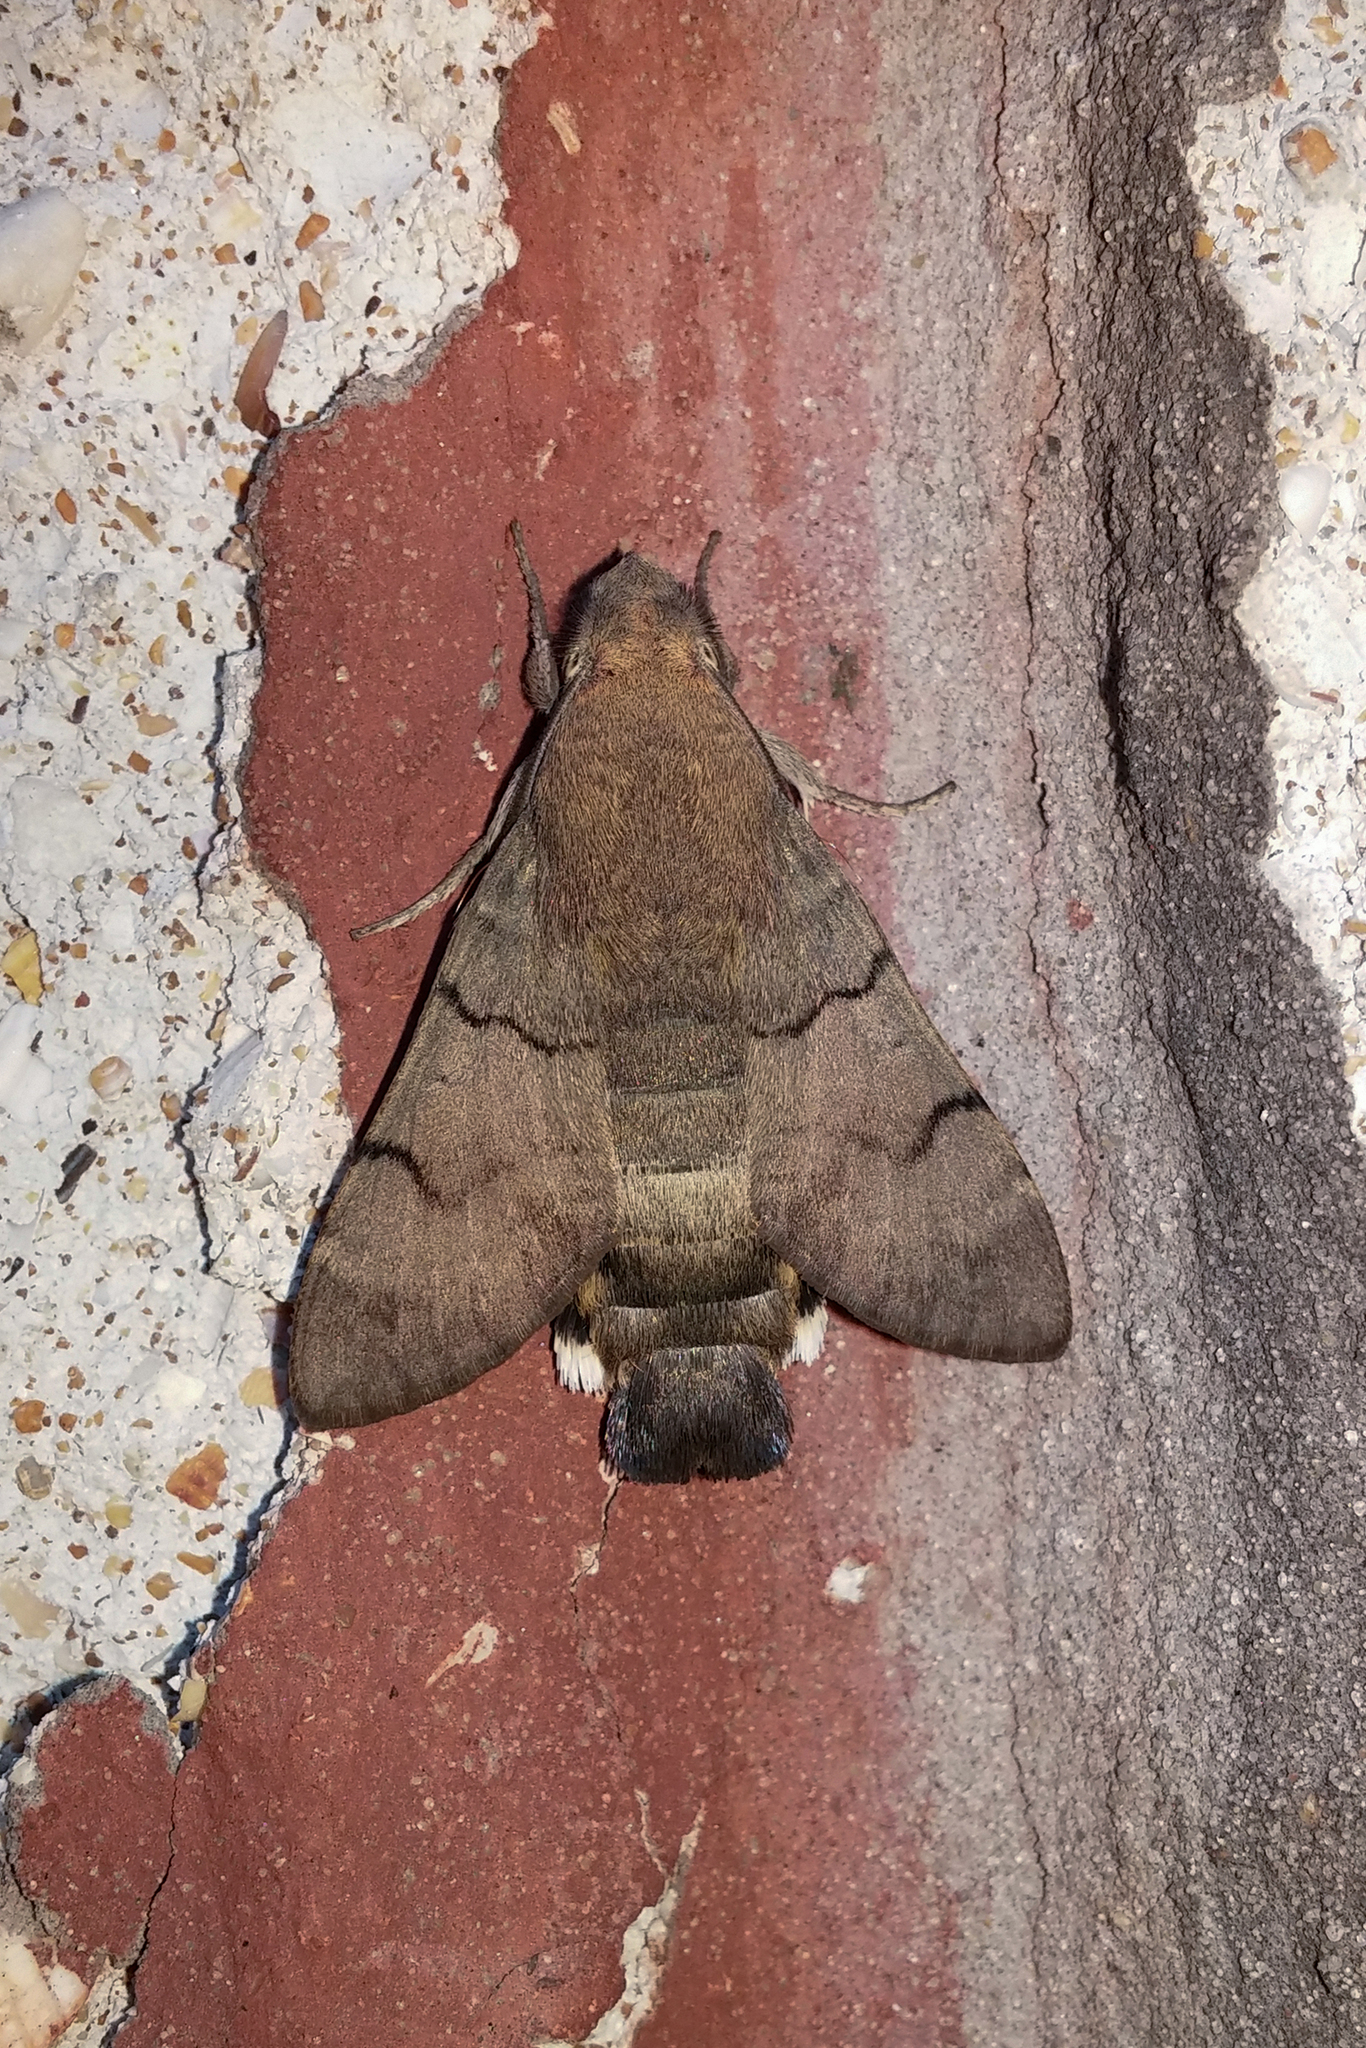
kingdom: Animalia
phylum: Arthropoda
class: Insecta
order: Lepidoptera
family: Sphingidae
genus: Macroglossum
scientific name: Macroglossum stellatarum
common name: Humming-bird hawk-moth
